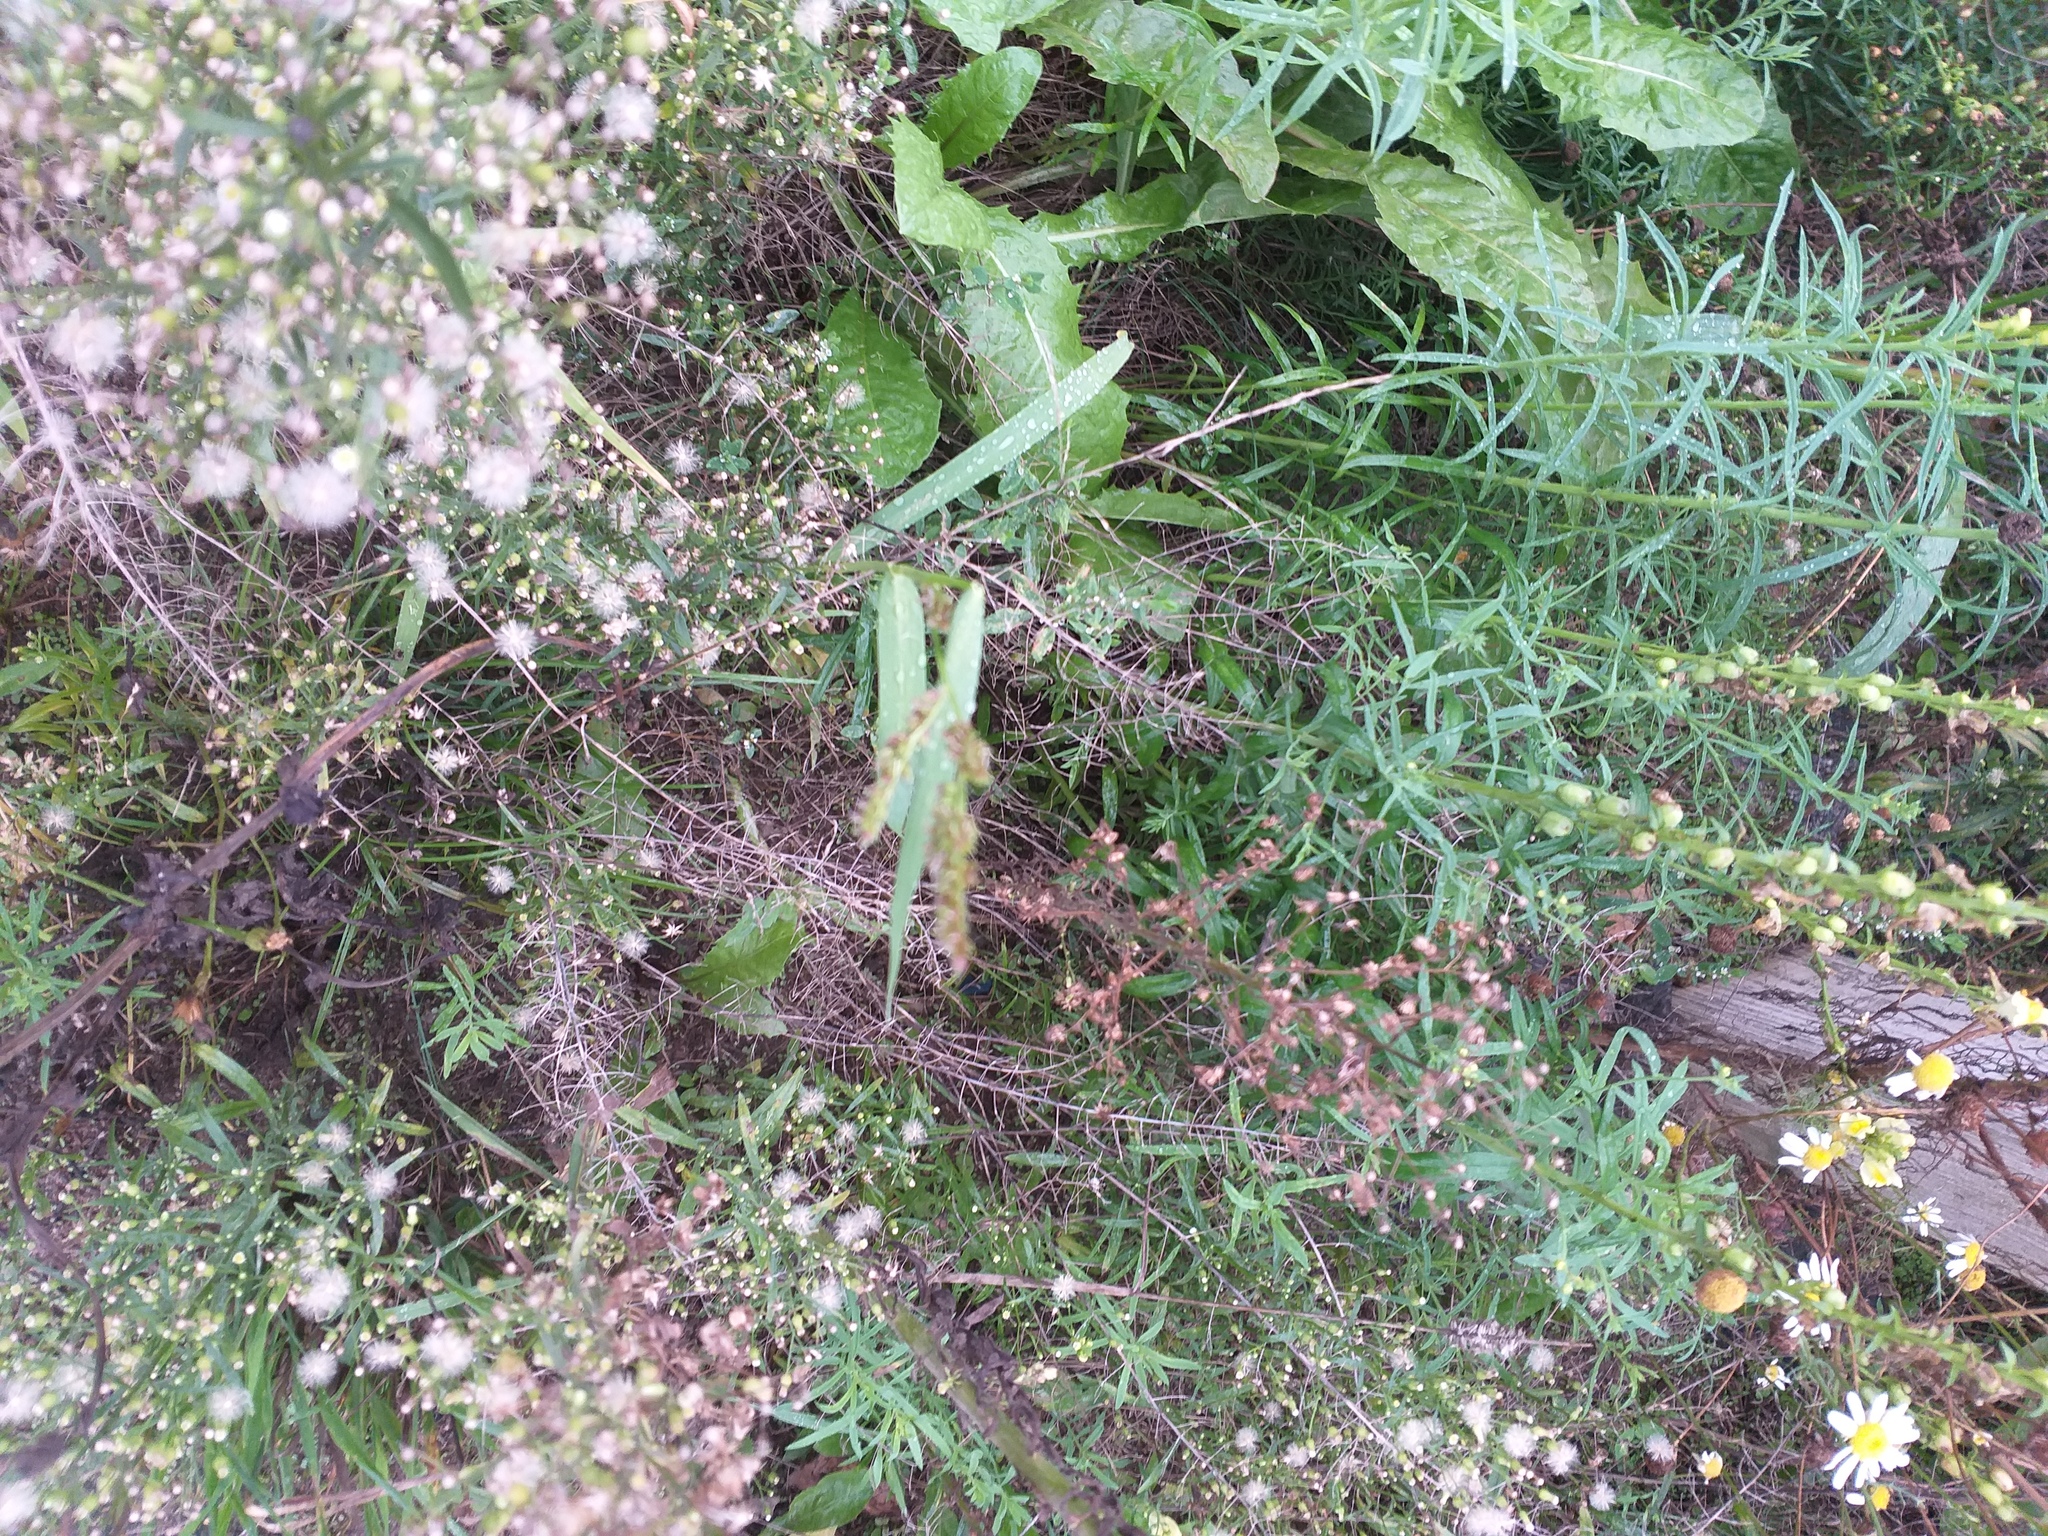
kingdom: Plantae
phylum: Tracheophyta
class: Liliopsida
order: Poales
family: Poaceae
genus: Echinochloa
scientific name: Echinochloa crus-galli
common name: Cockspur
